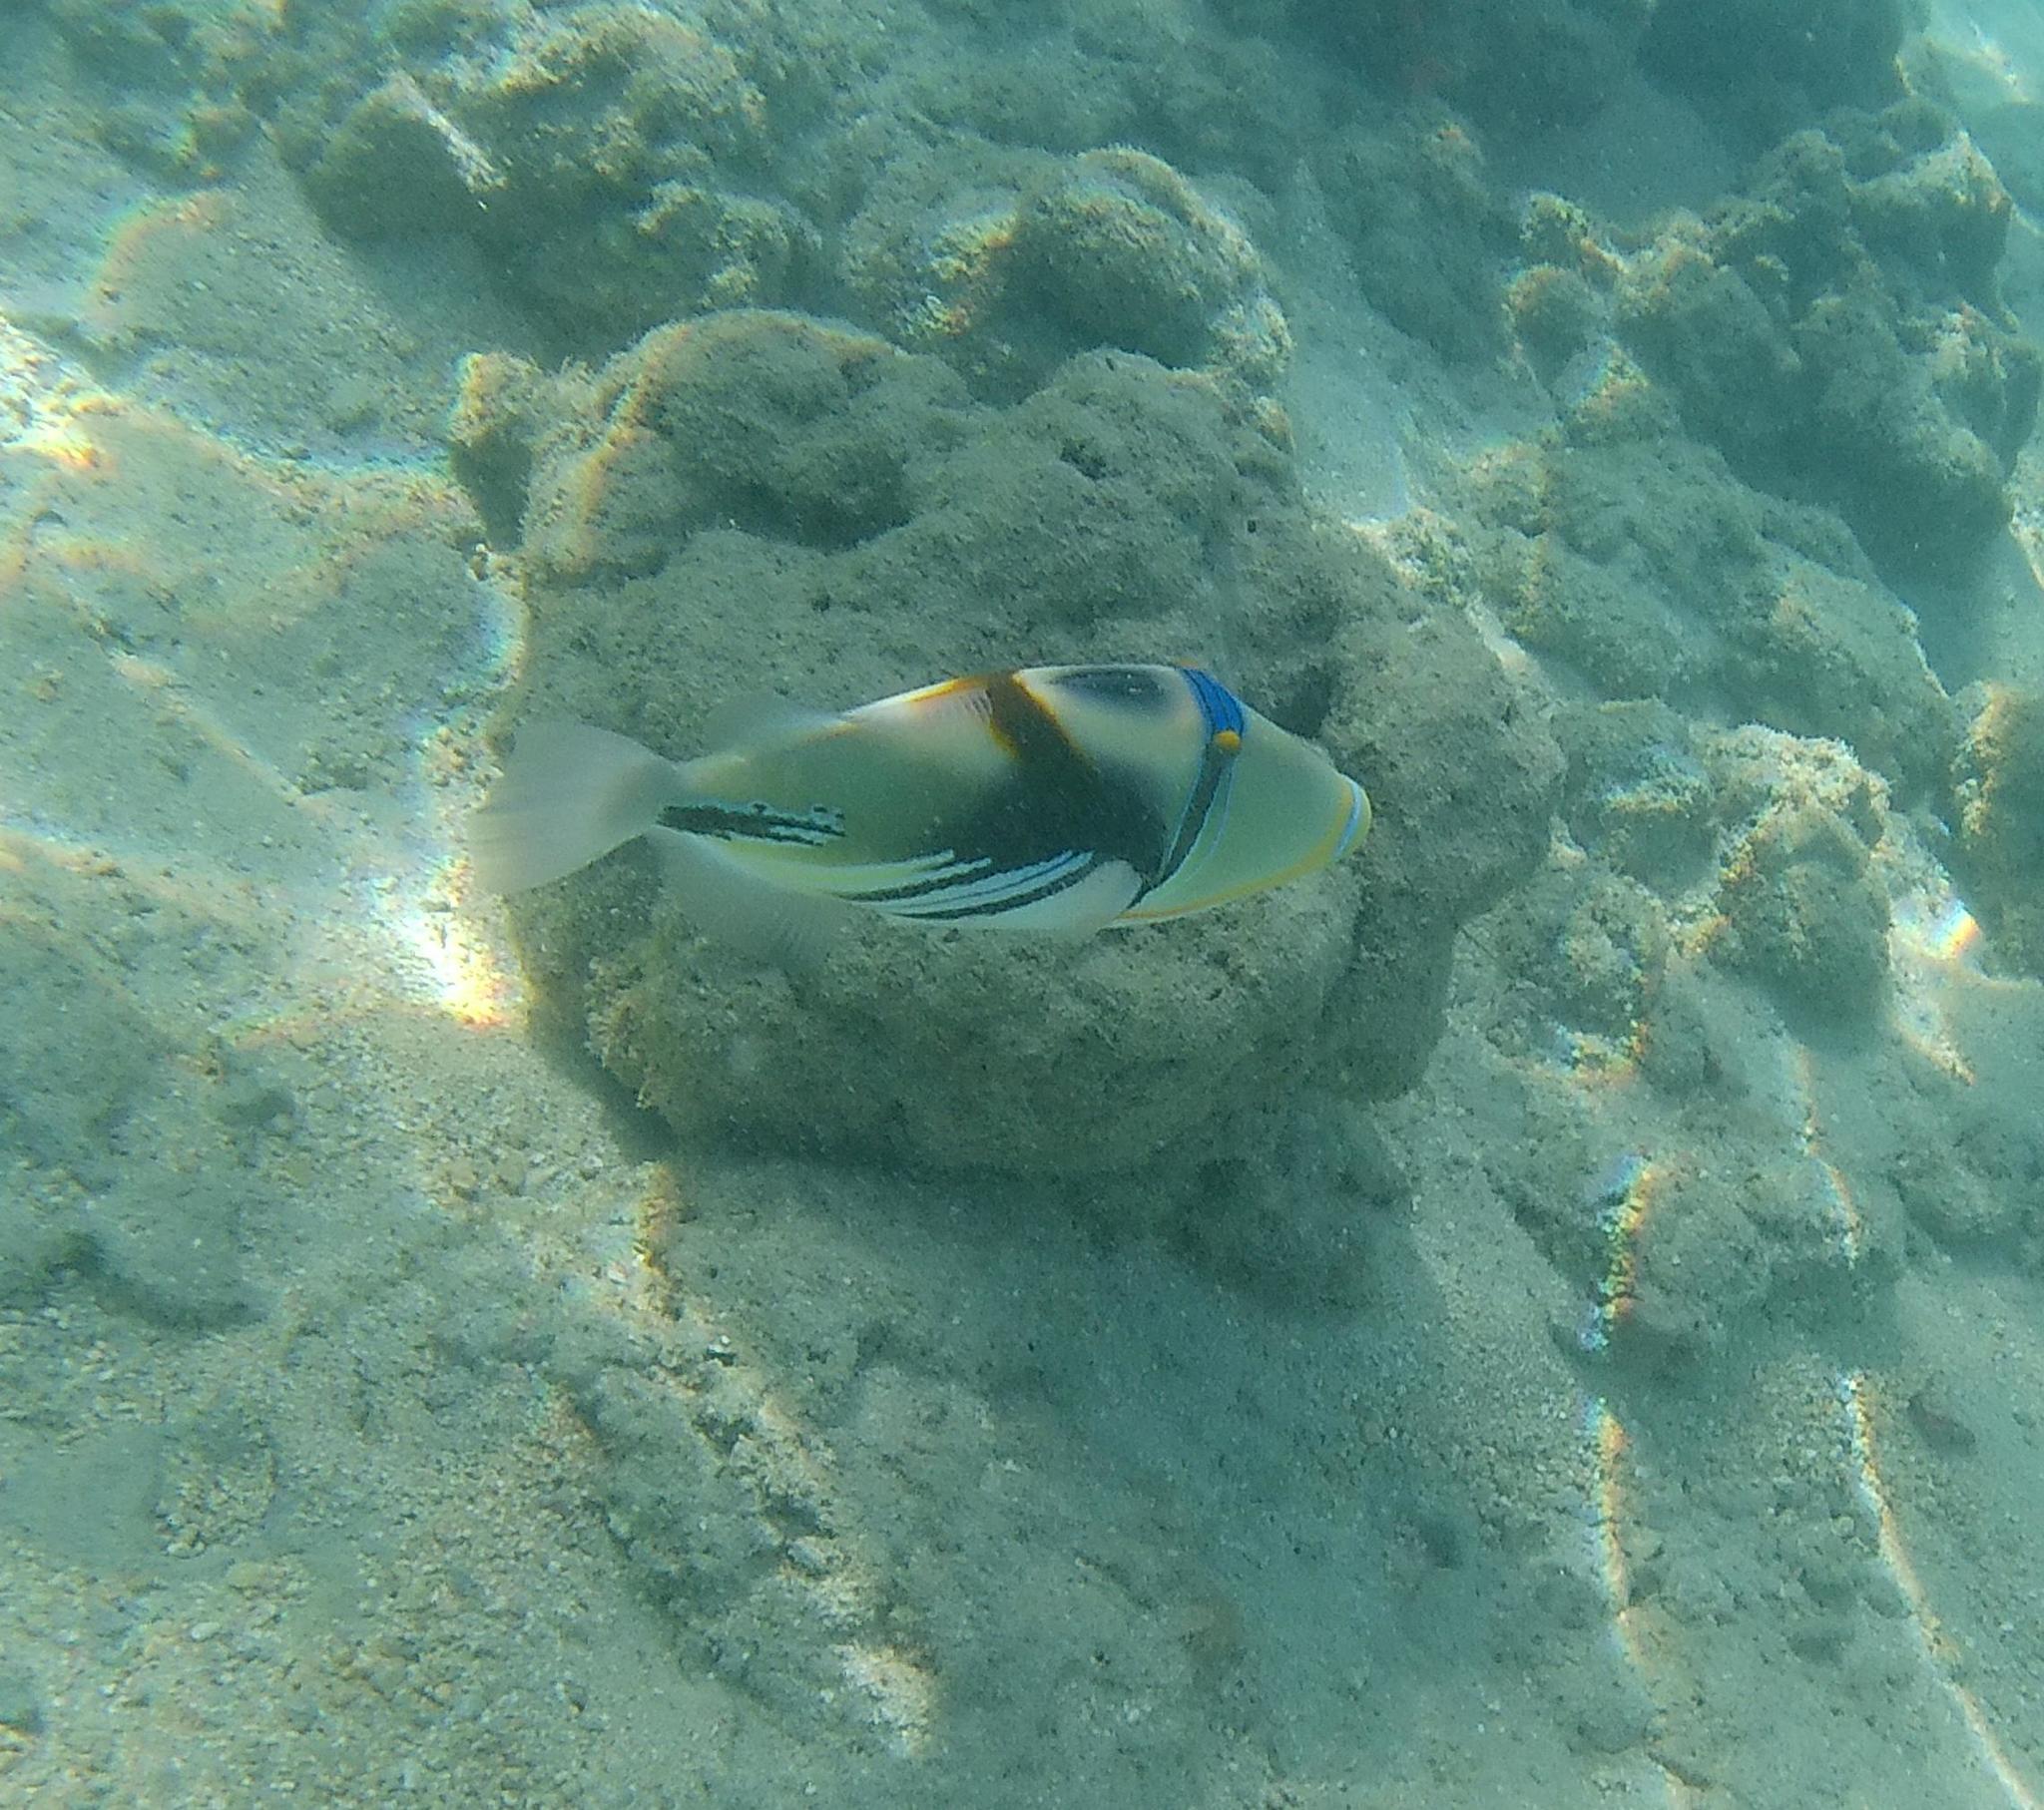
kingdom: Animalia
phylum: Chordata
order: Tetraodontiformes
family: Balistidae
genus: Rhinecanthus
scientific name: Rhinecanthus aculeatus
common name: White-banded triggerfish
